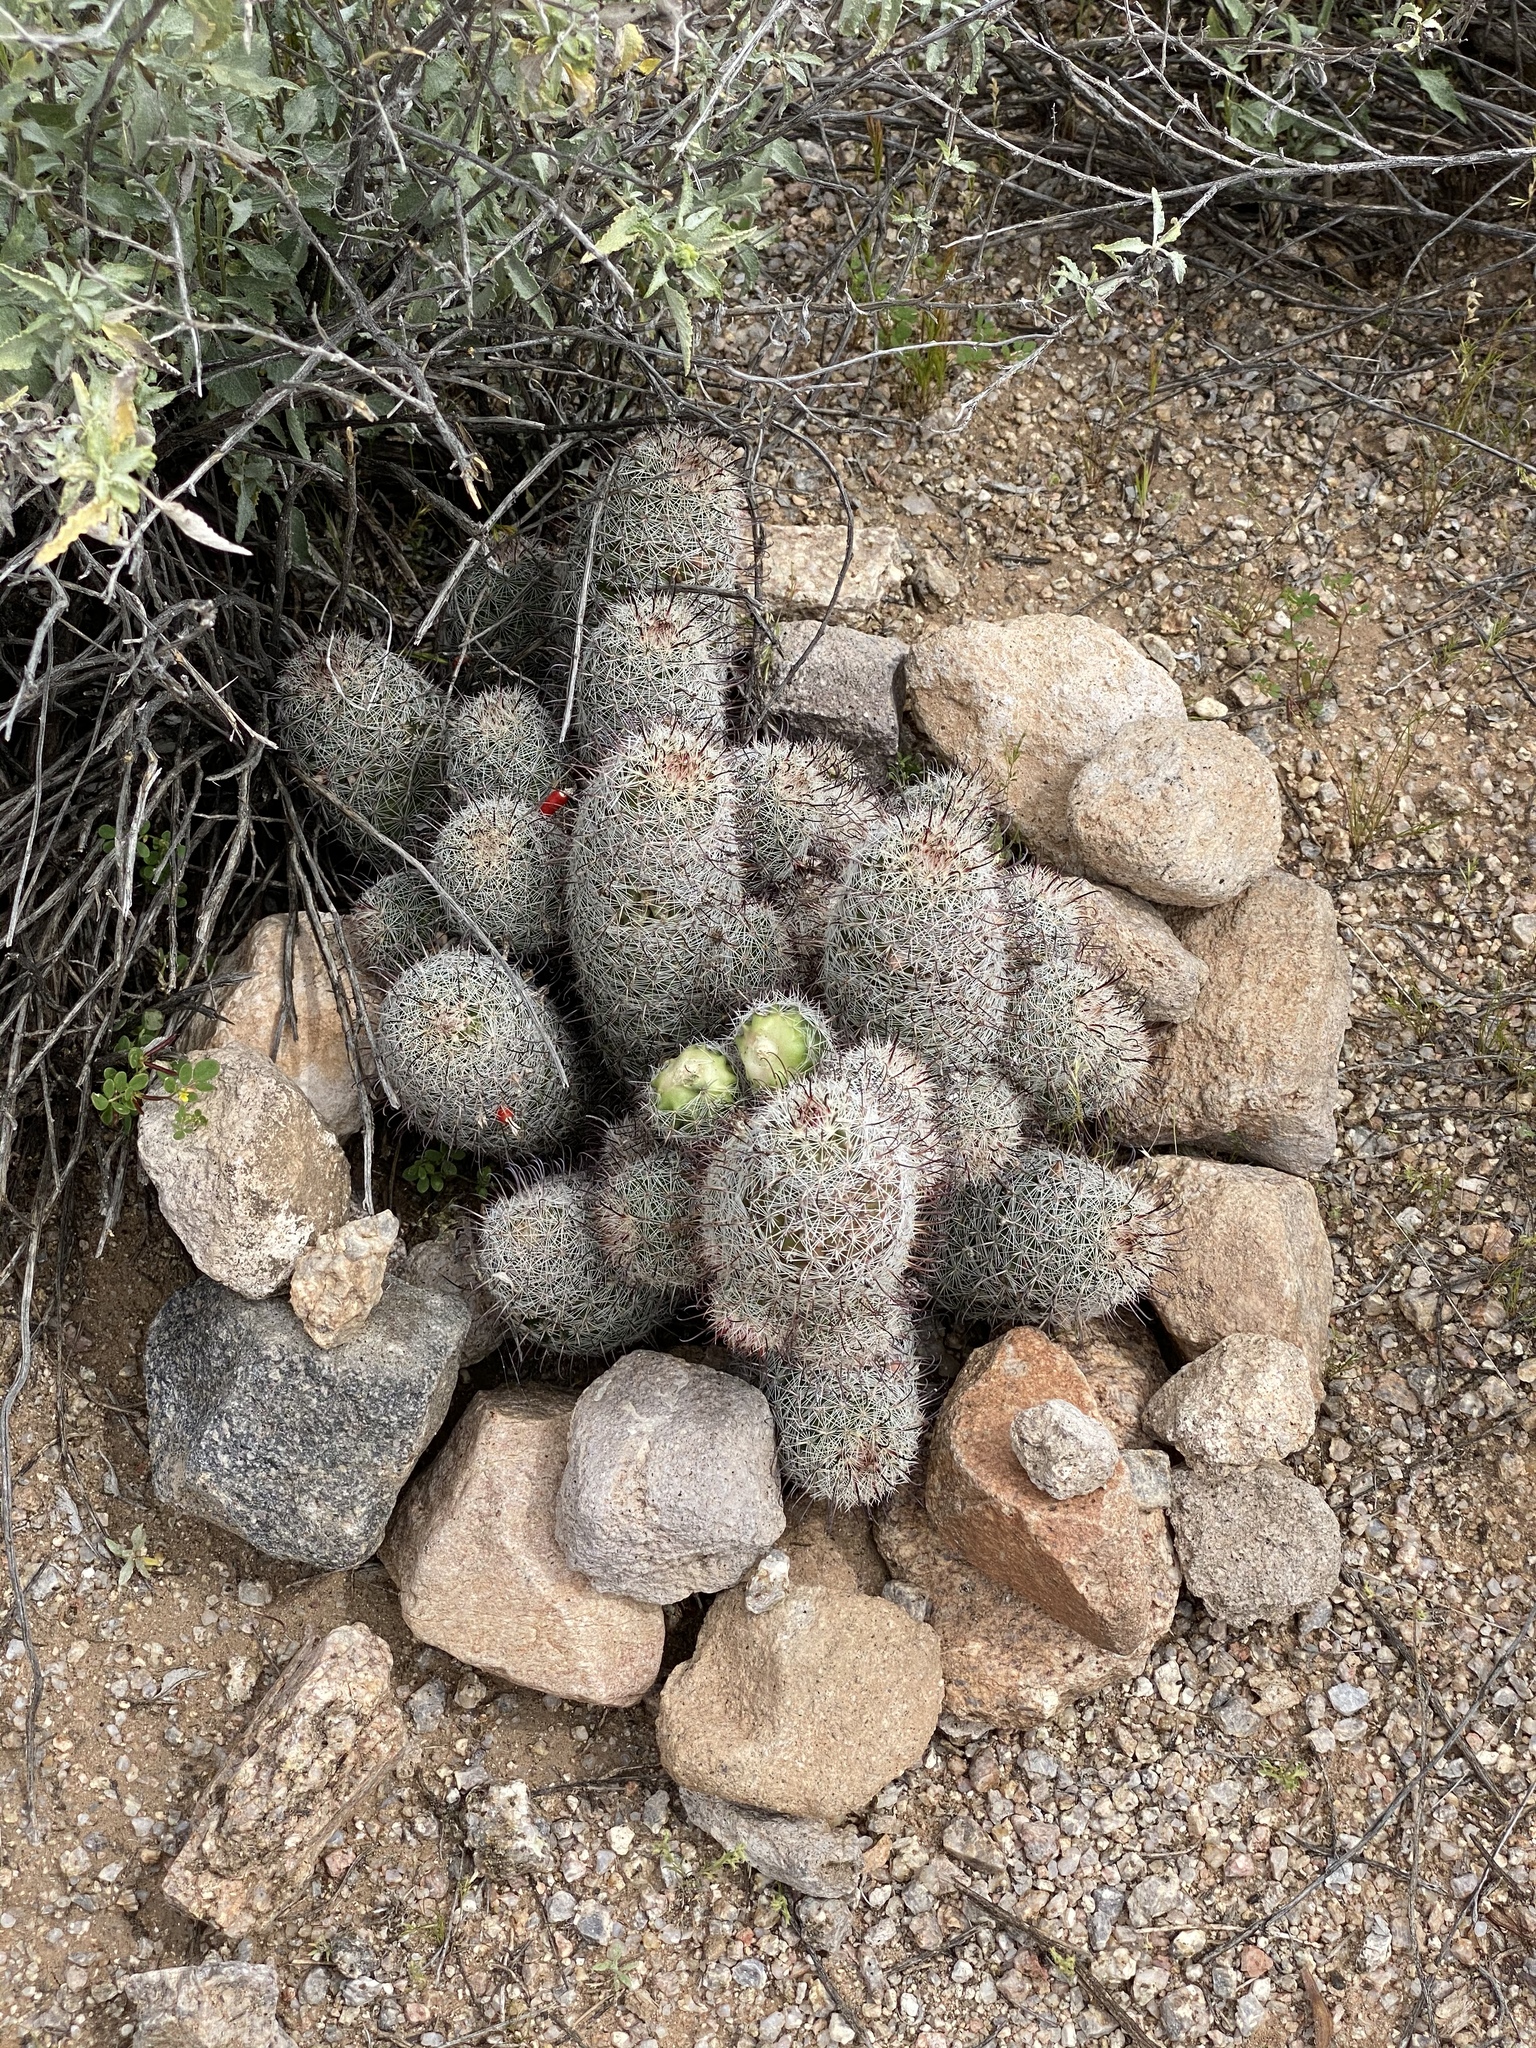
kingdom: Plantae
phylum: Tracheophyta
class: Magnoliopsida
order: Caryophyllales
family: Cactaceae
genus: Cochemiea
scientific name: Cochemiea grahamii
